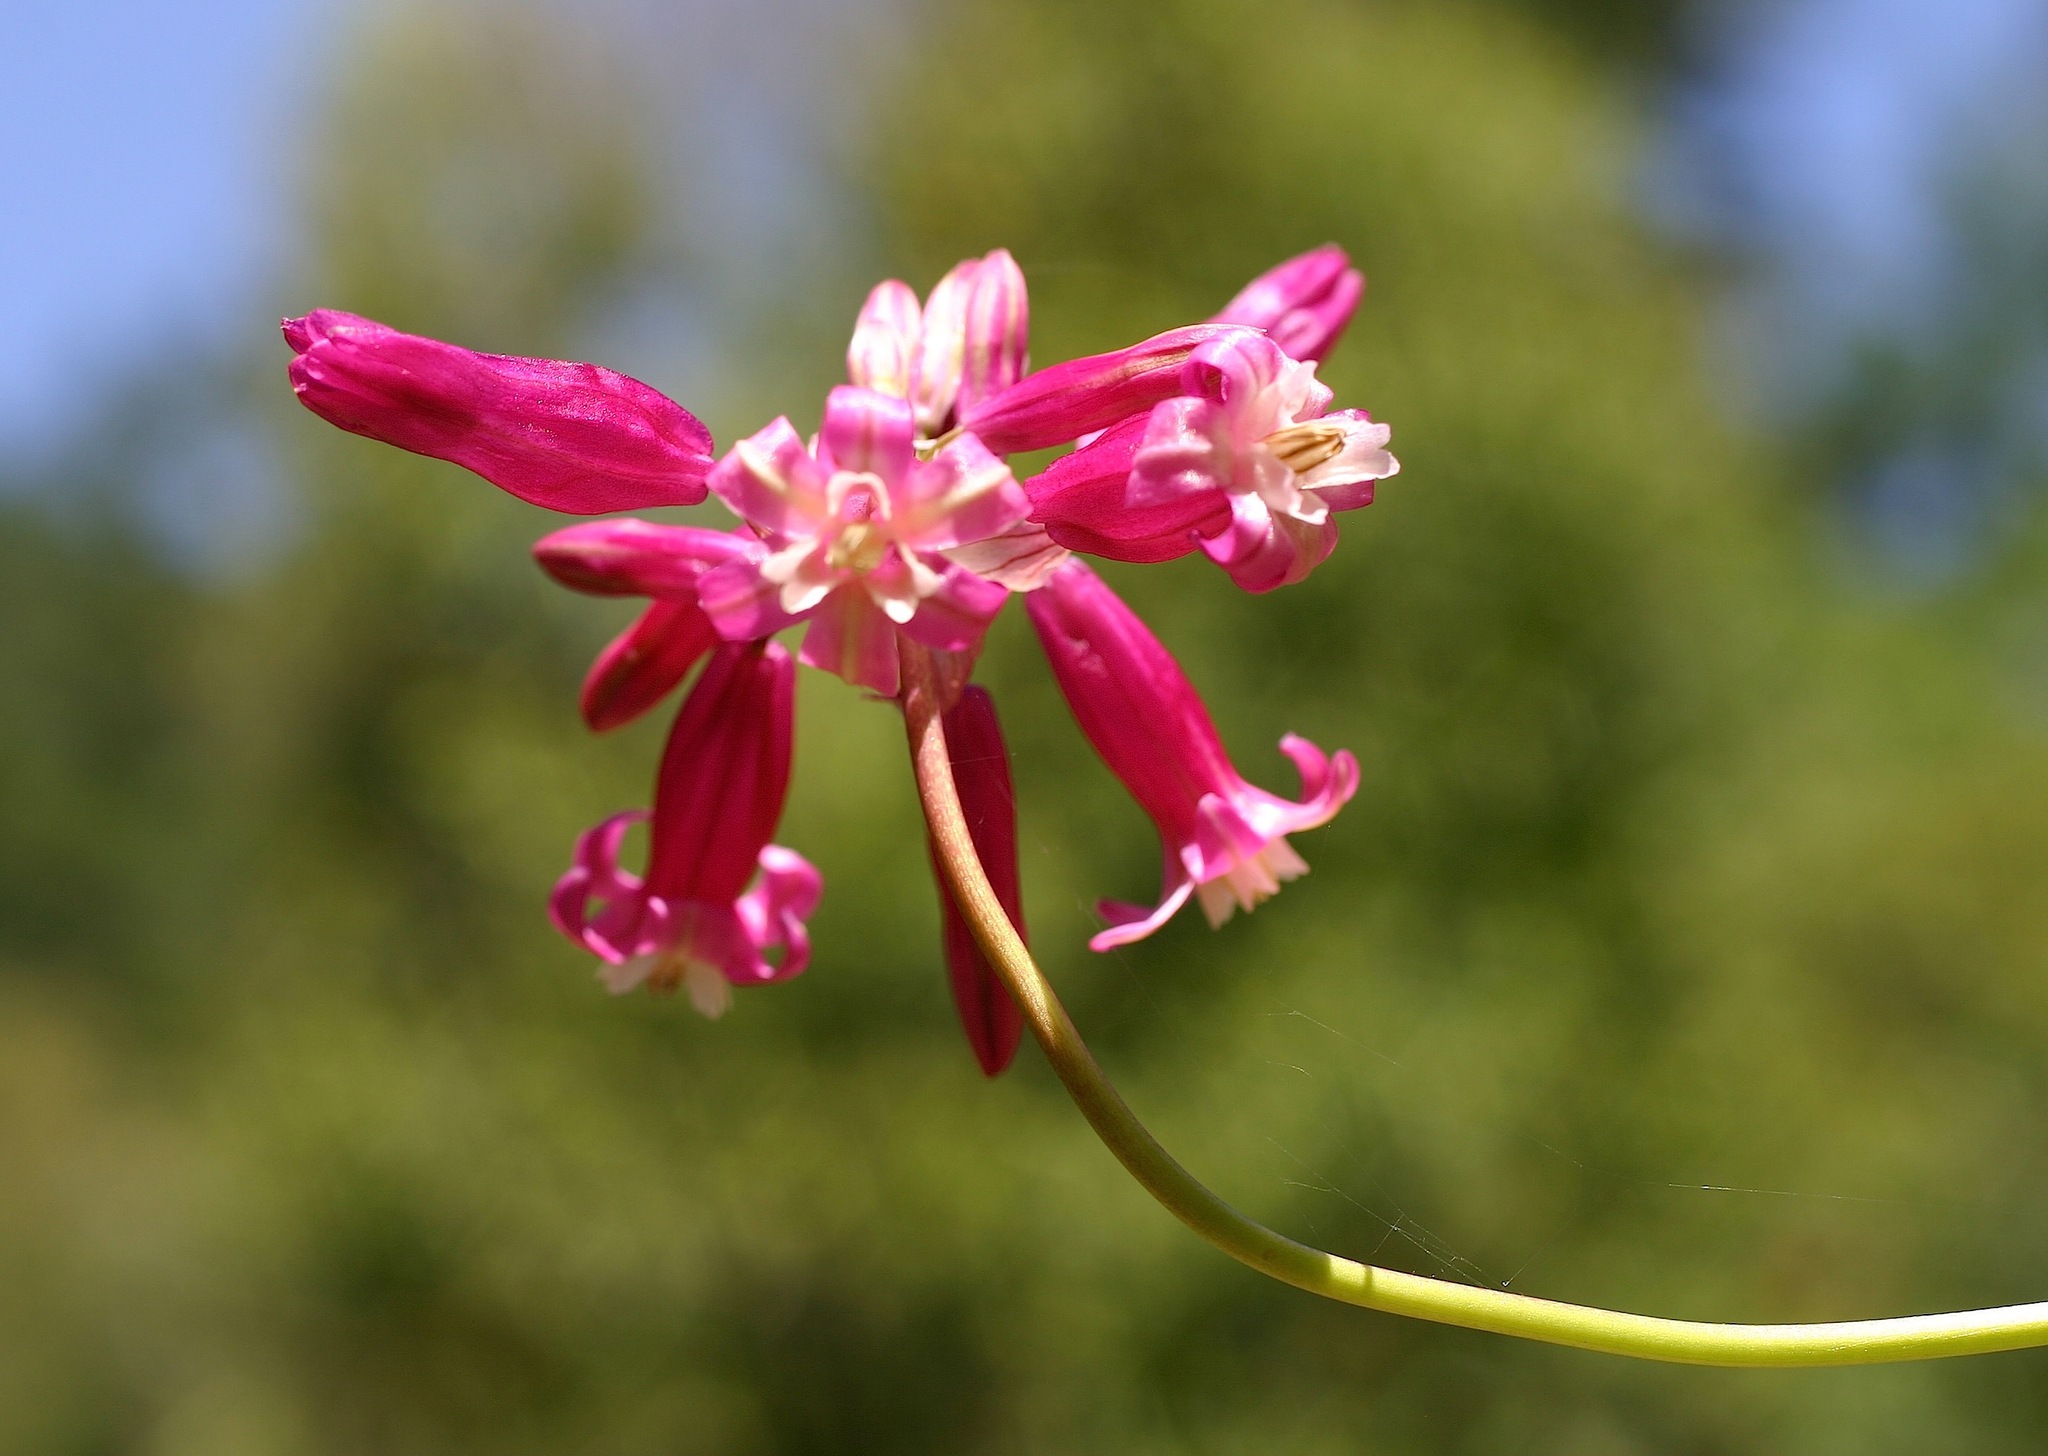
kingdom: Plantae
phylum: Tracheophyta
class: Liliopsida
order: Asparagales
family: Asparagaceae
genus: Dichelostemma
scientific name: Dichelostemma venustum
